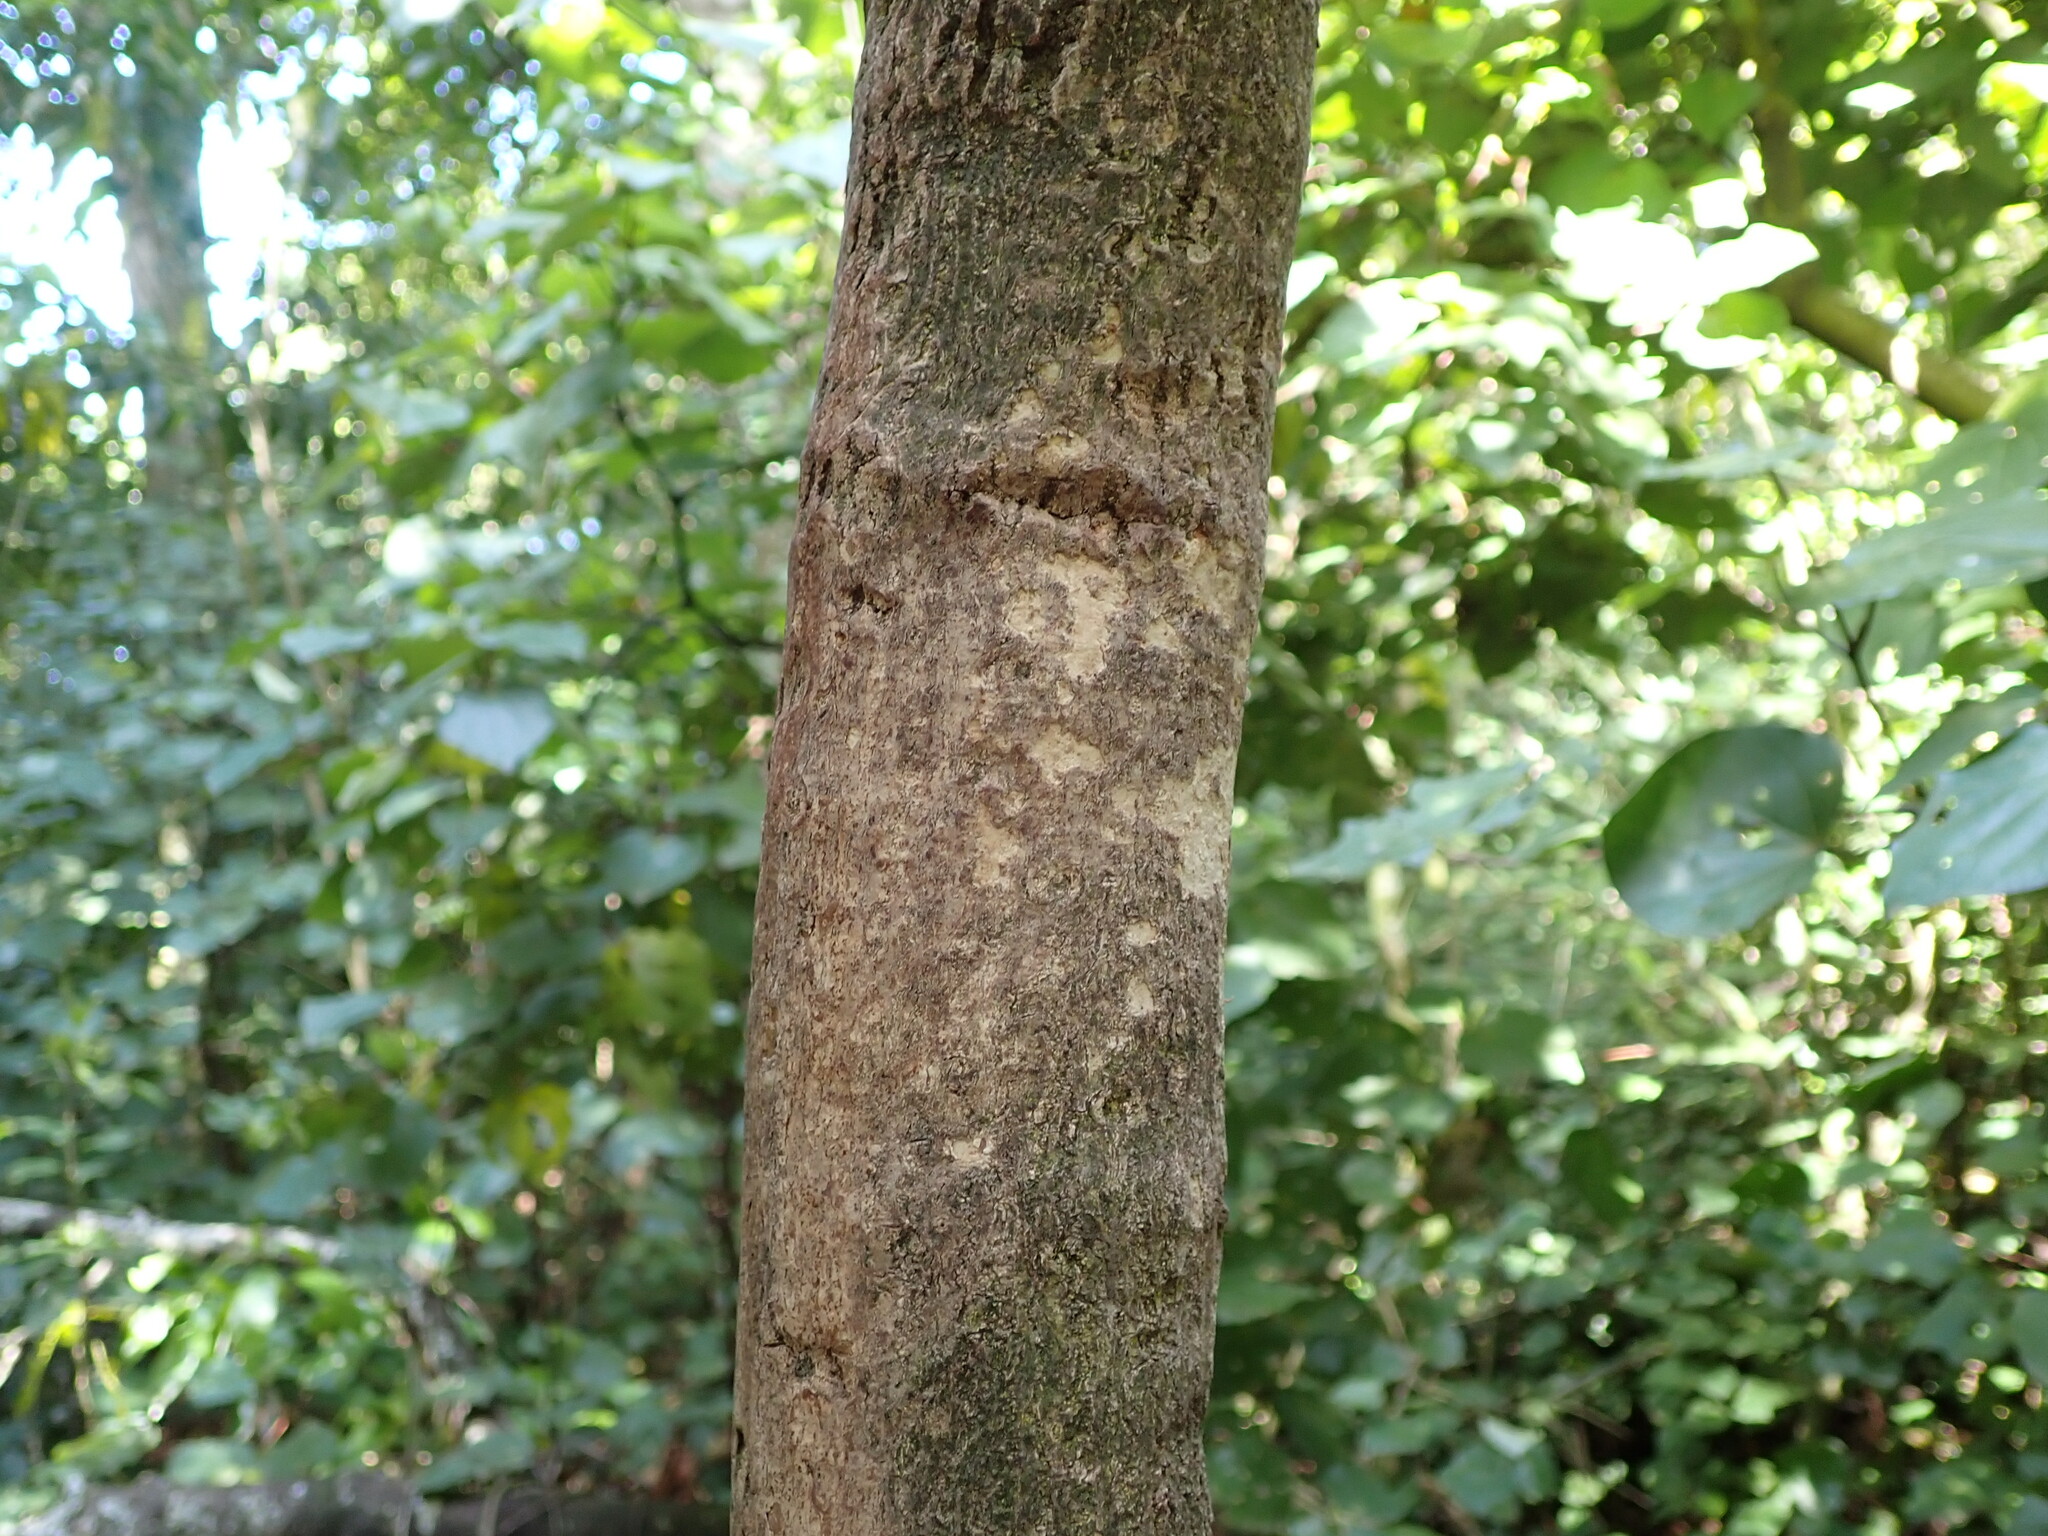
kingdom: Plantae
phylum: Tracheophyta
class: Magnoliopsida
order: Malpighiales
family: Passifloraceae
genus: Passiflora
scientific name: Passiflora tetrandra
